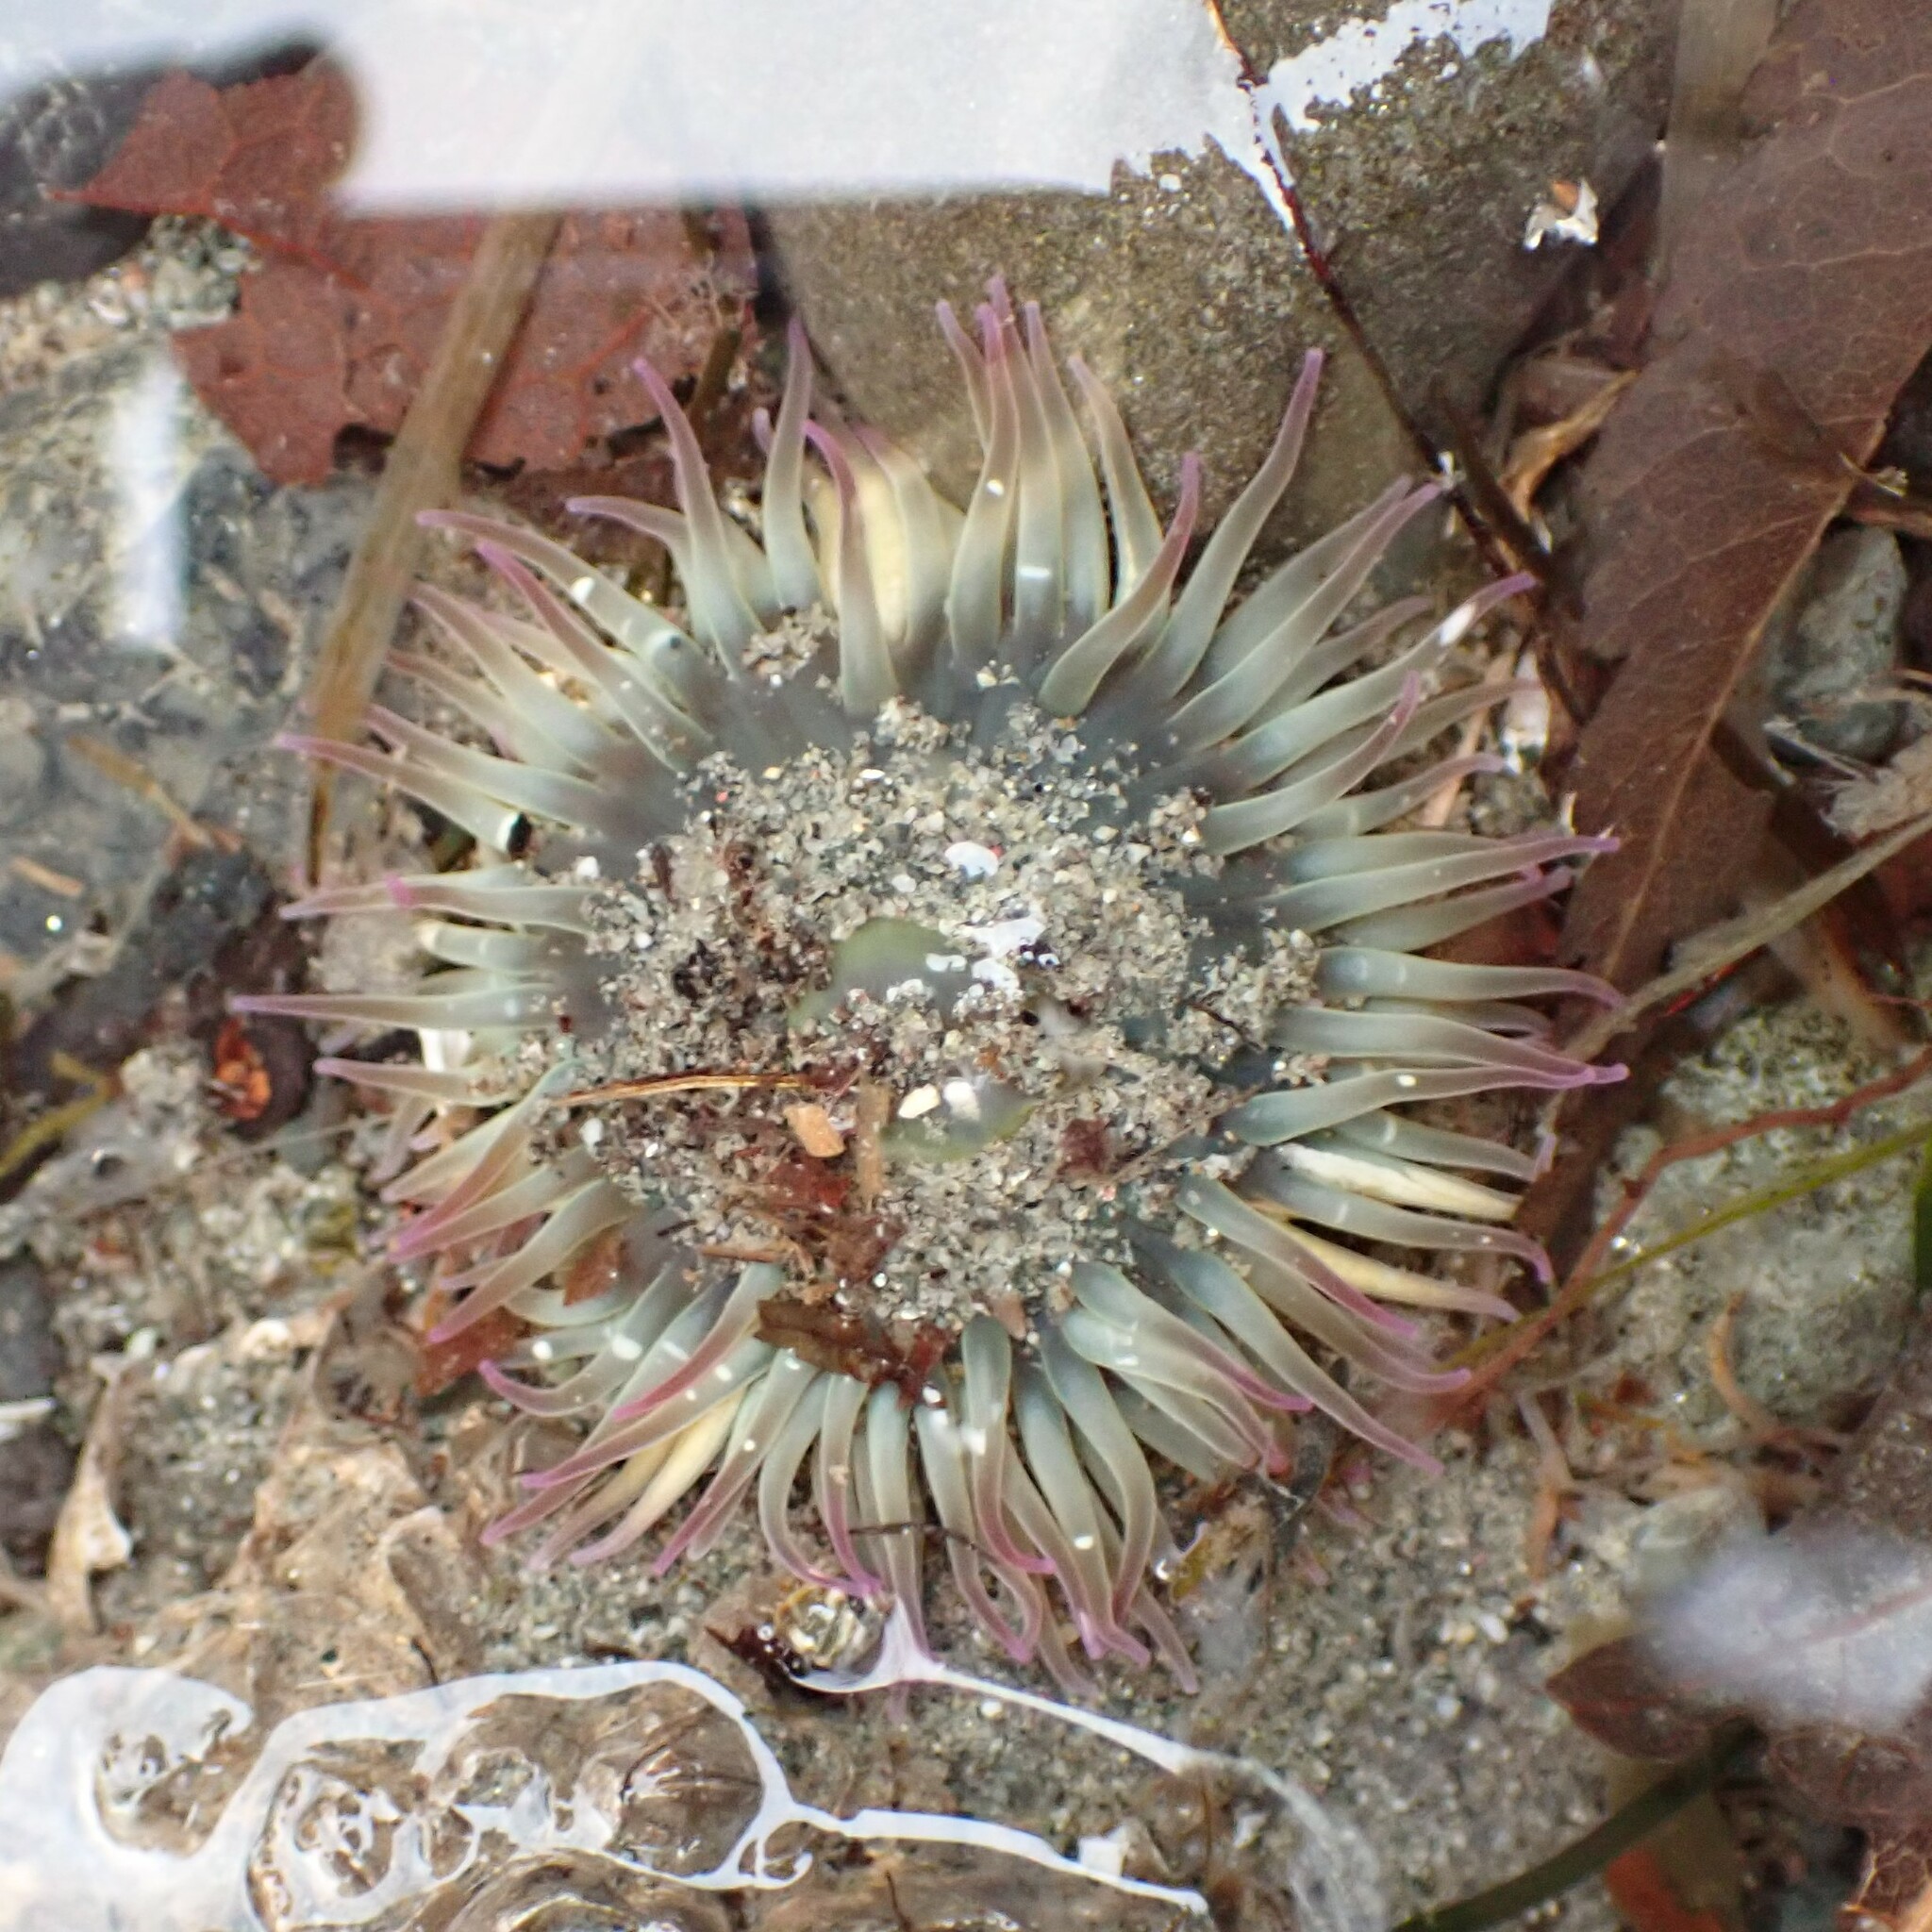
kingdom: Animalia
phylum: Cnidaria
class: Anthozoa
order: Actiniaria
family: Actiniidae
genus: Anthopleura
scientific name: Anthopleura elegantissima
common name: Clonal anemone
